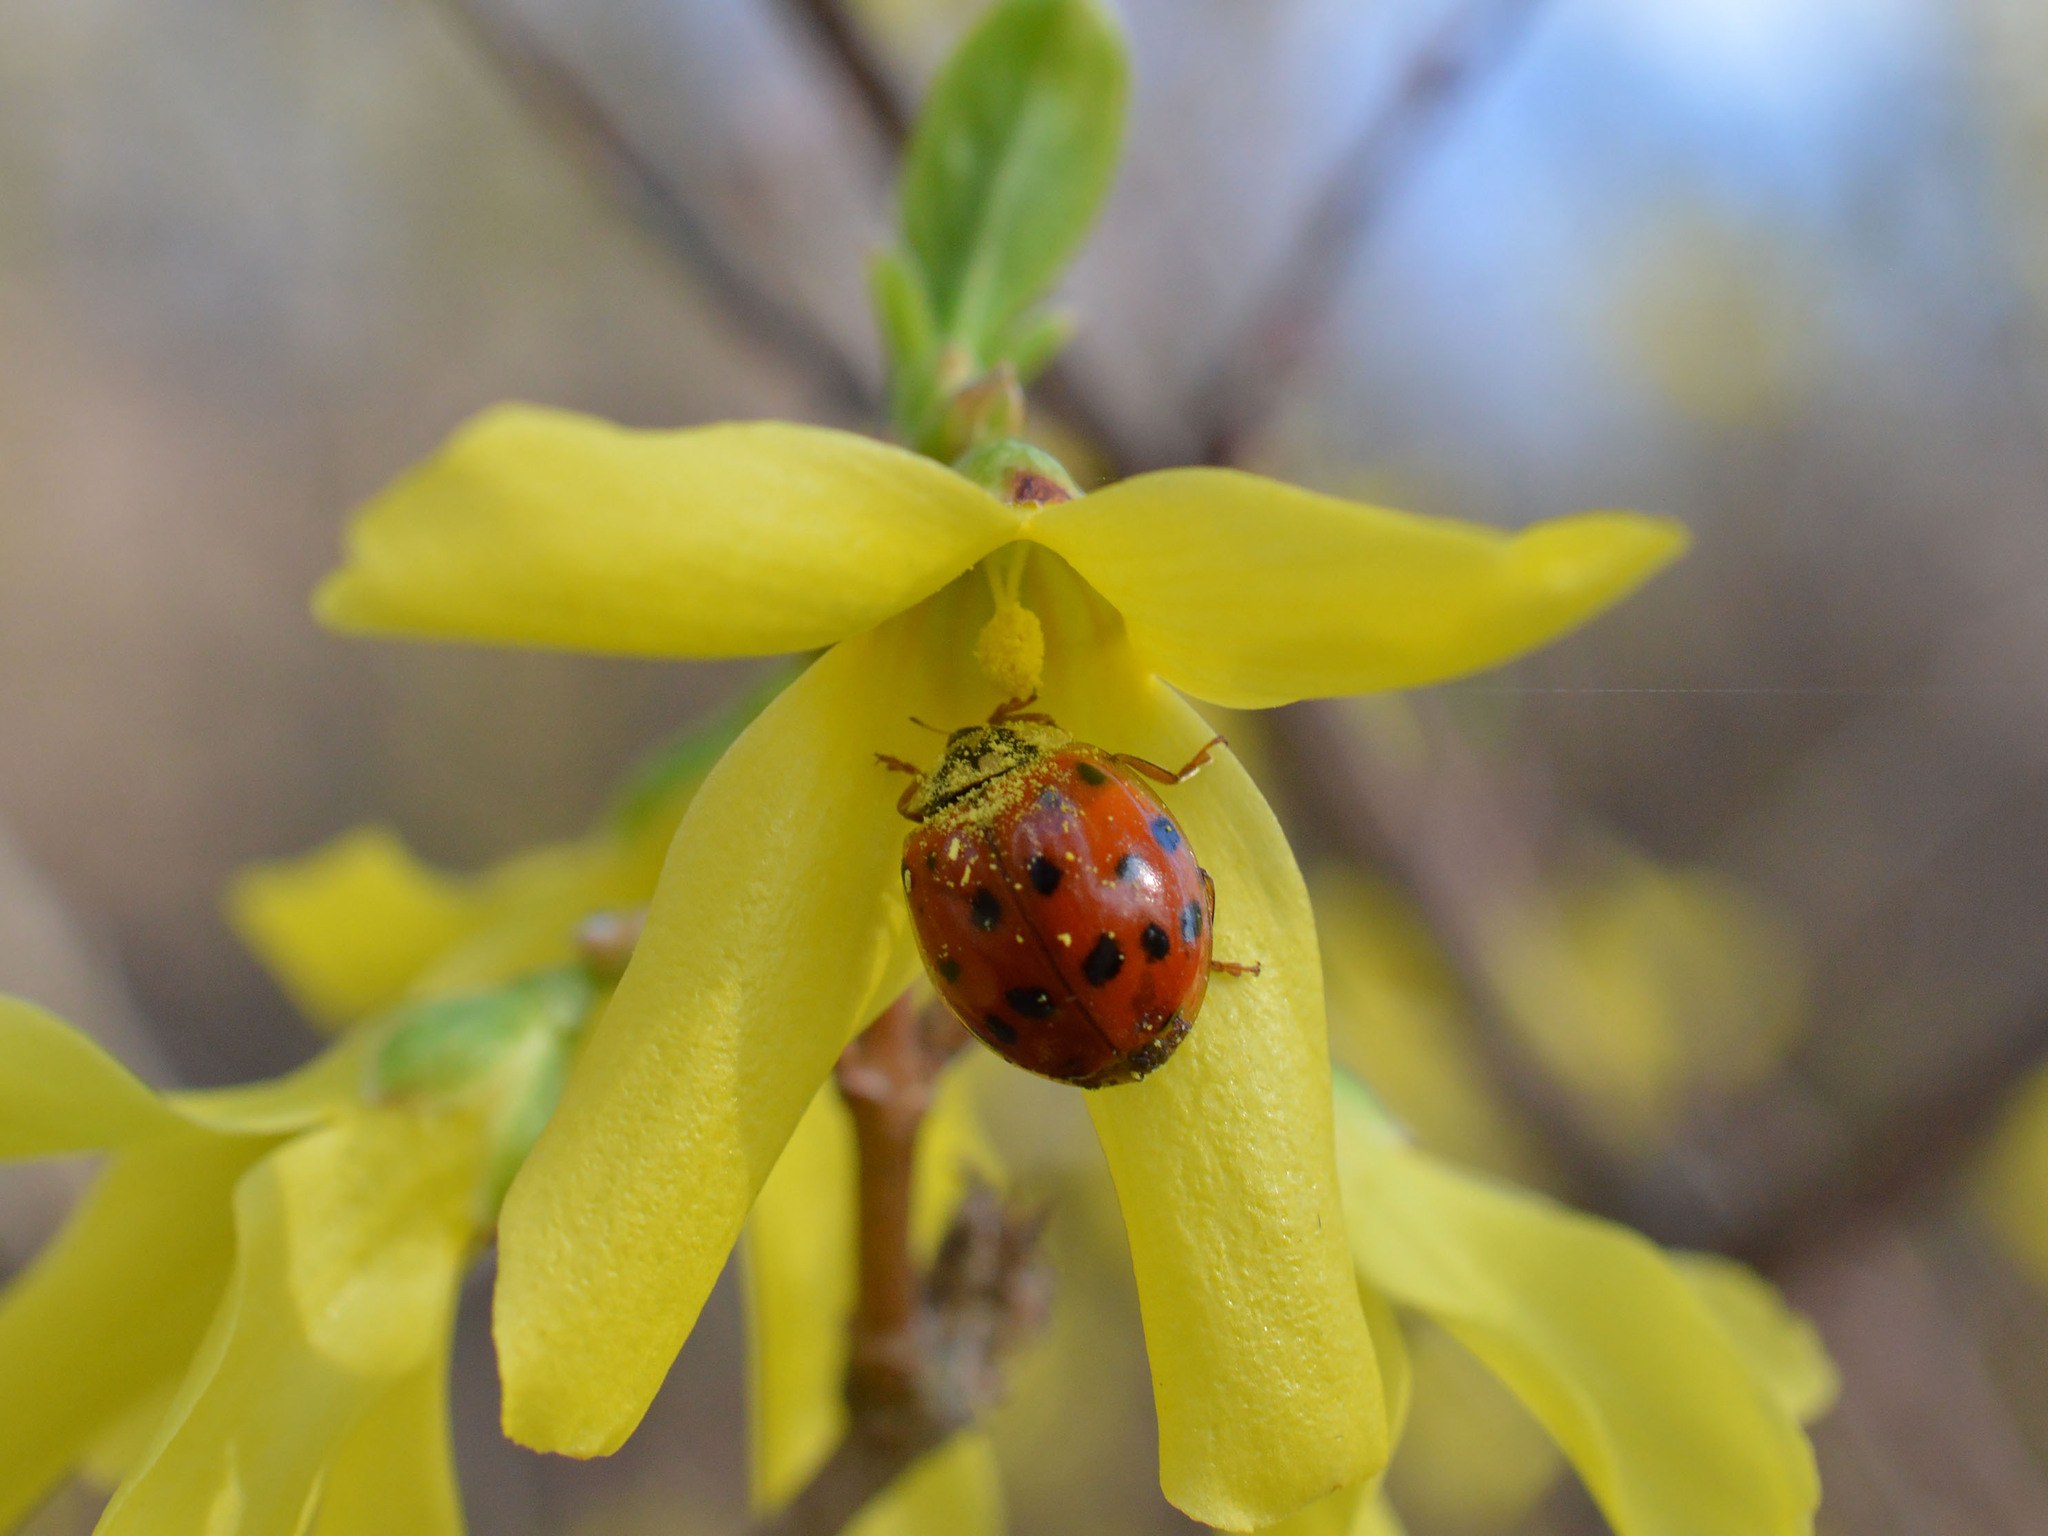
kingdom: Animalia
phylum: Arthropoda
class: Insecta
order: Coleoptera
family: Coccinellidae
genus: Harmonia
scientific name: Harmonia axyridis
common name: Harlequin ladybird
